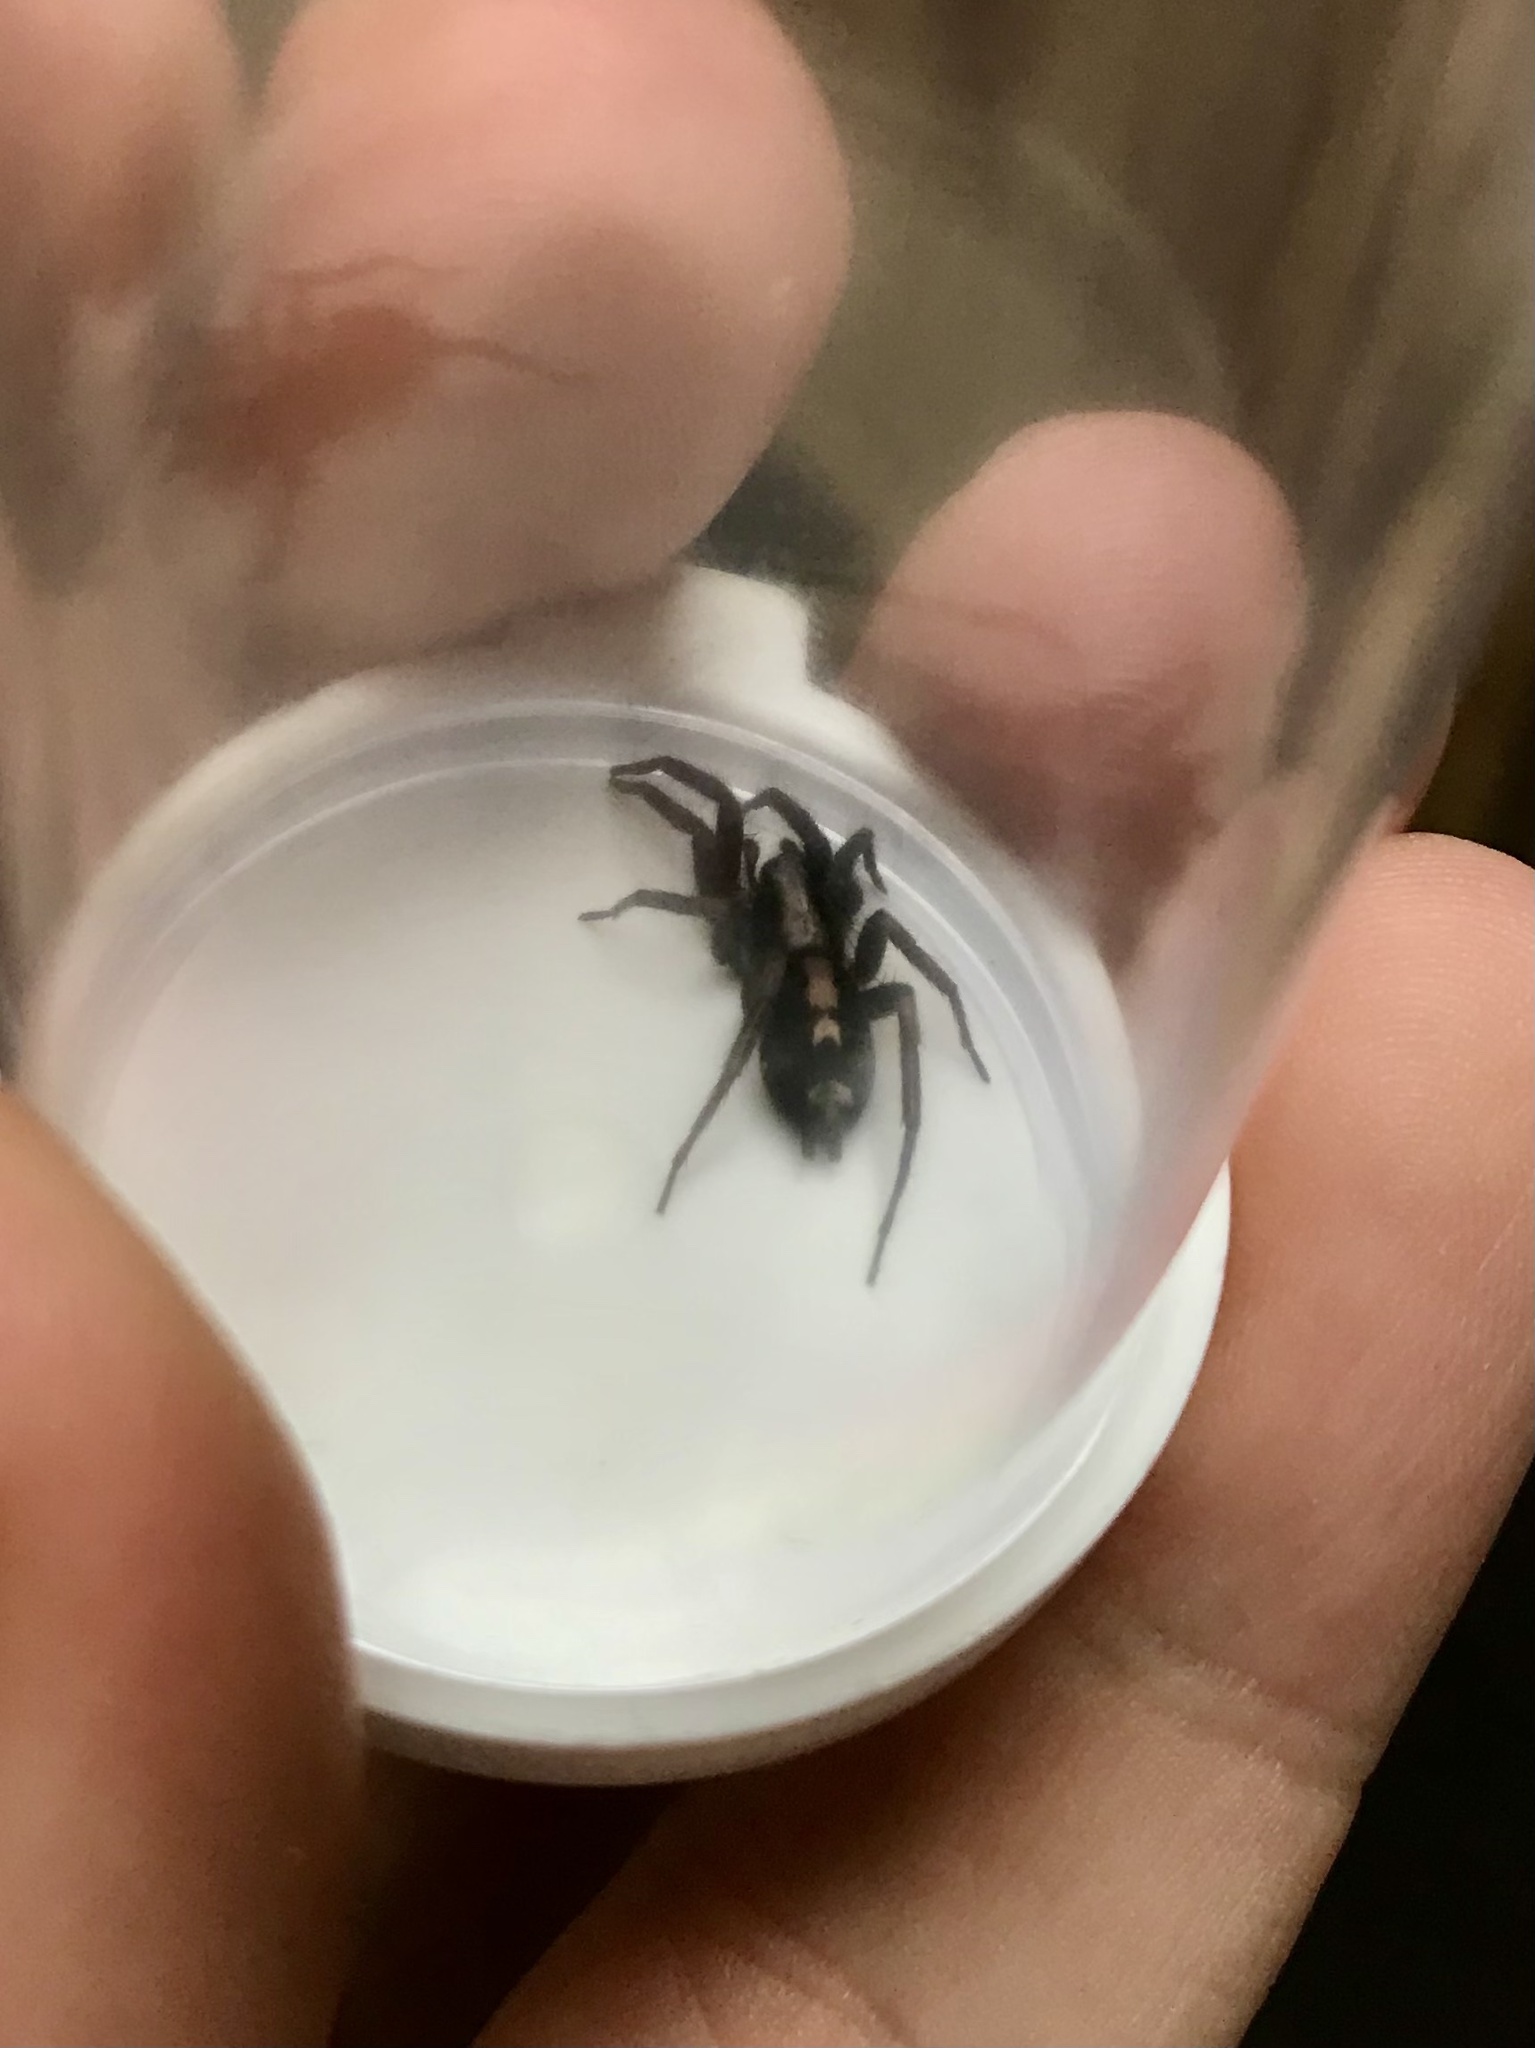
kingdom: Animalia
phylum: Arthropoda
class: Arachnida
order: Araneae
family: Gnaphosidae
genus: Herpyllus
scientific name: Herpyllus ecclesiasticus
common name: Eastern parson spider
